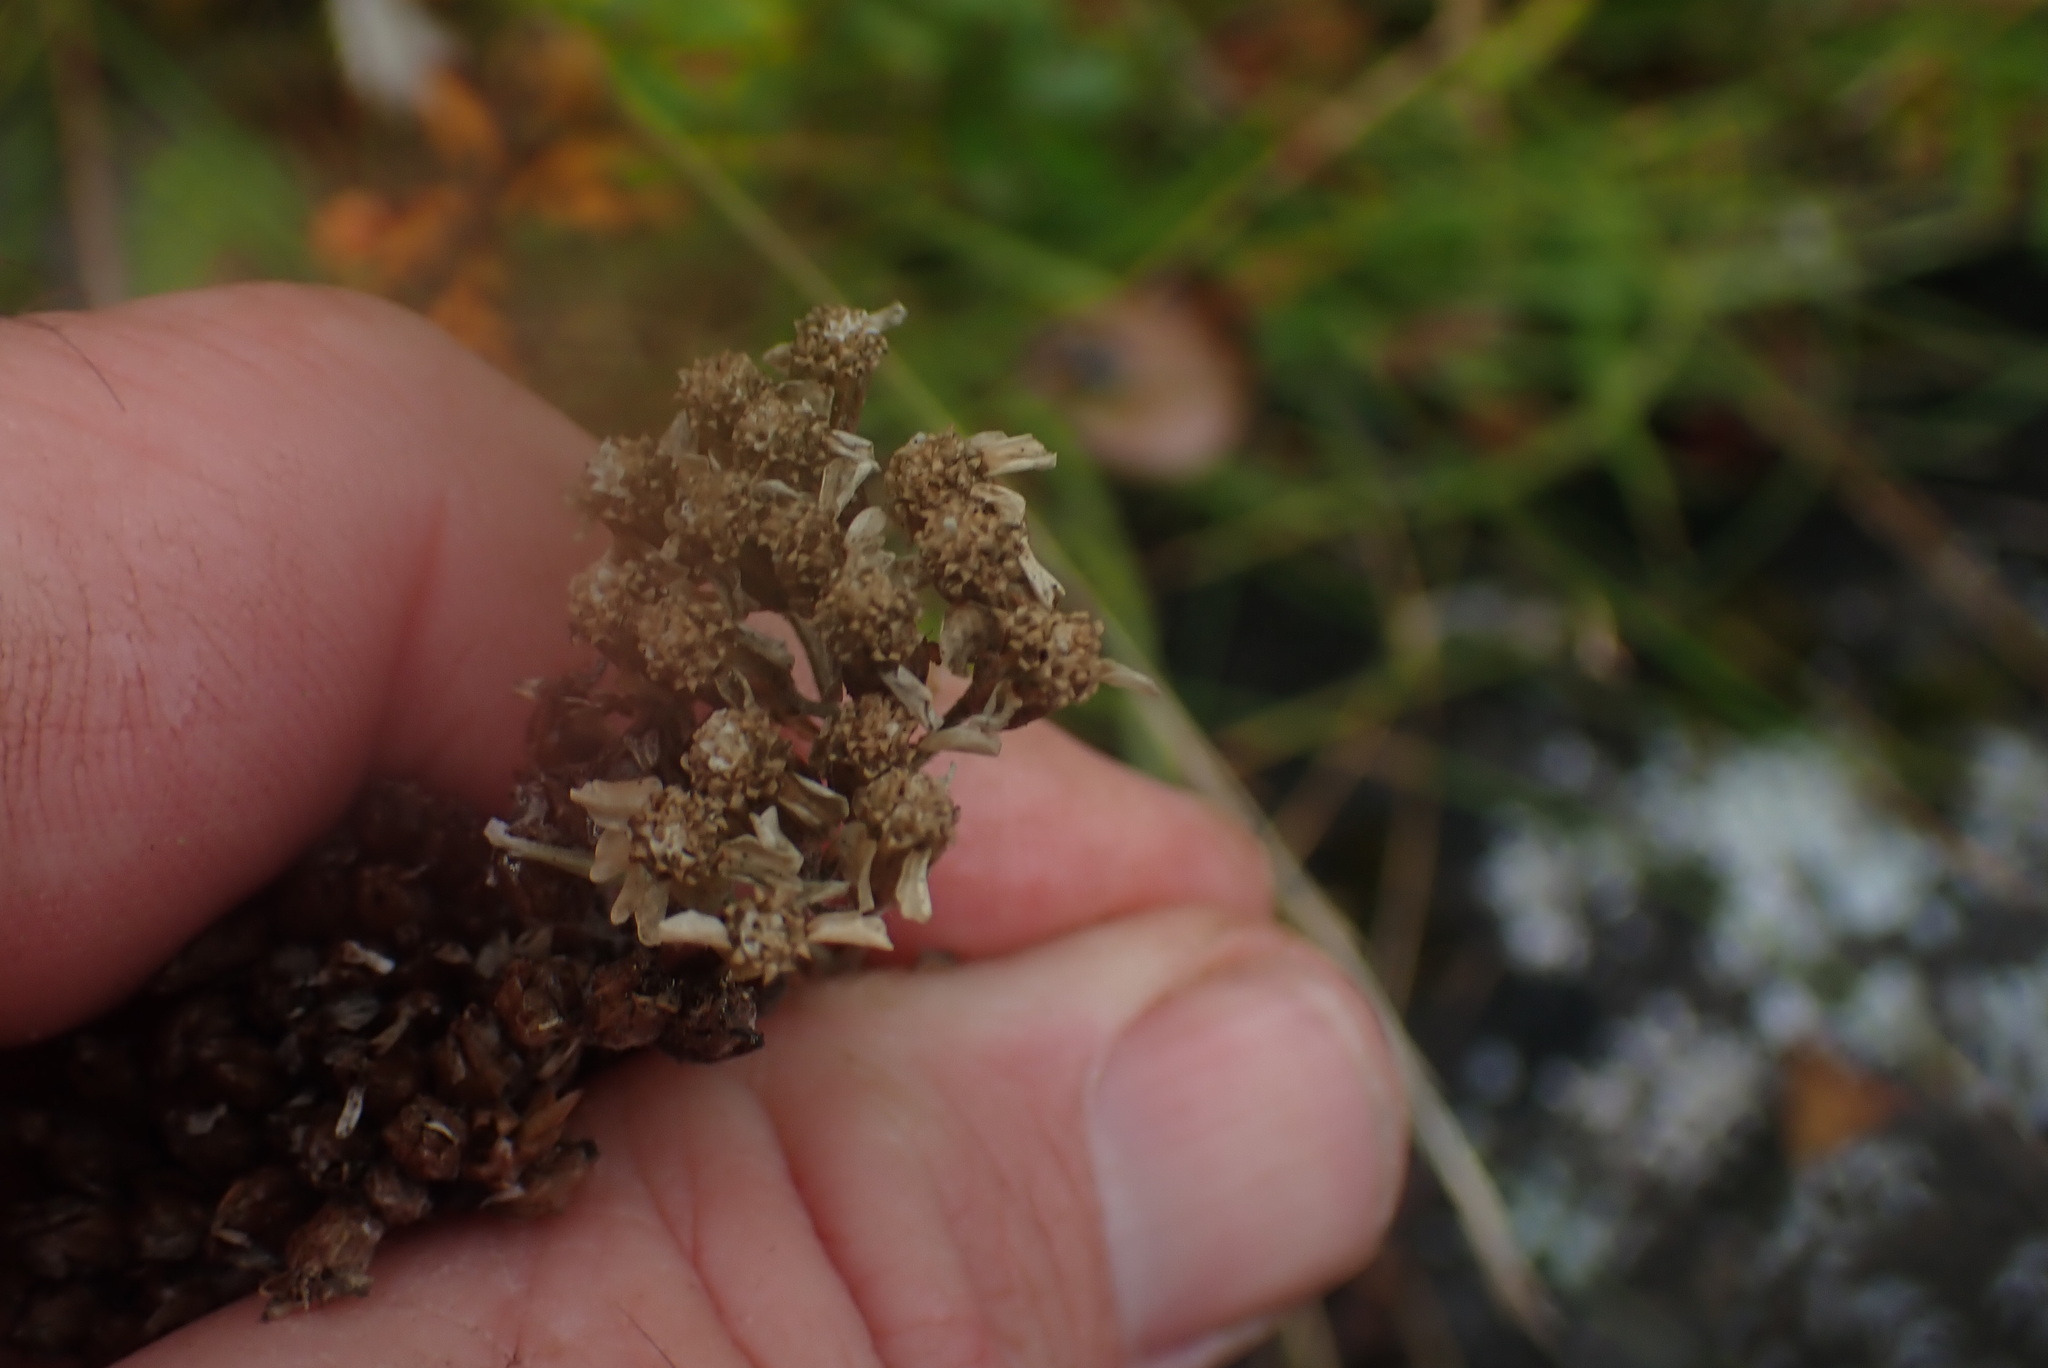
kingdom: Plantae
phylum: Tracheophyta
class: Magnoliopsida
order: Asterales
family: Asteraceae
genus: Achillea
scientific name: Achillea millefolium
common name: Yarrow
